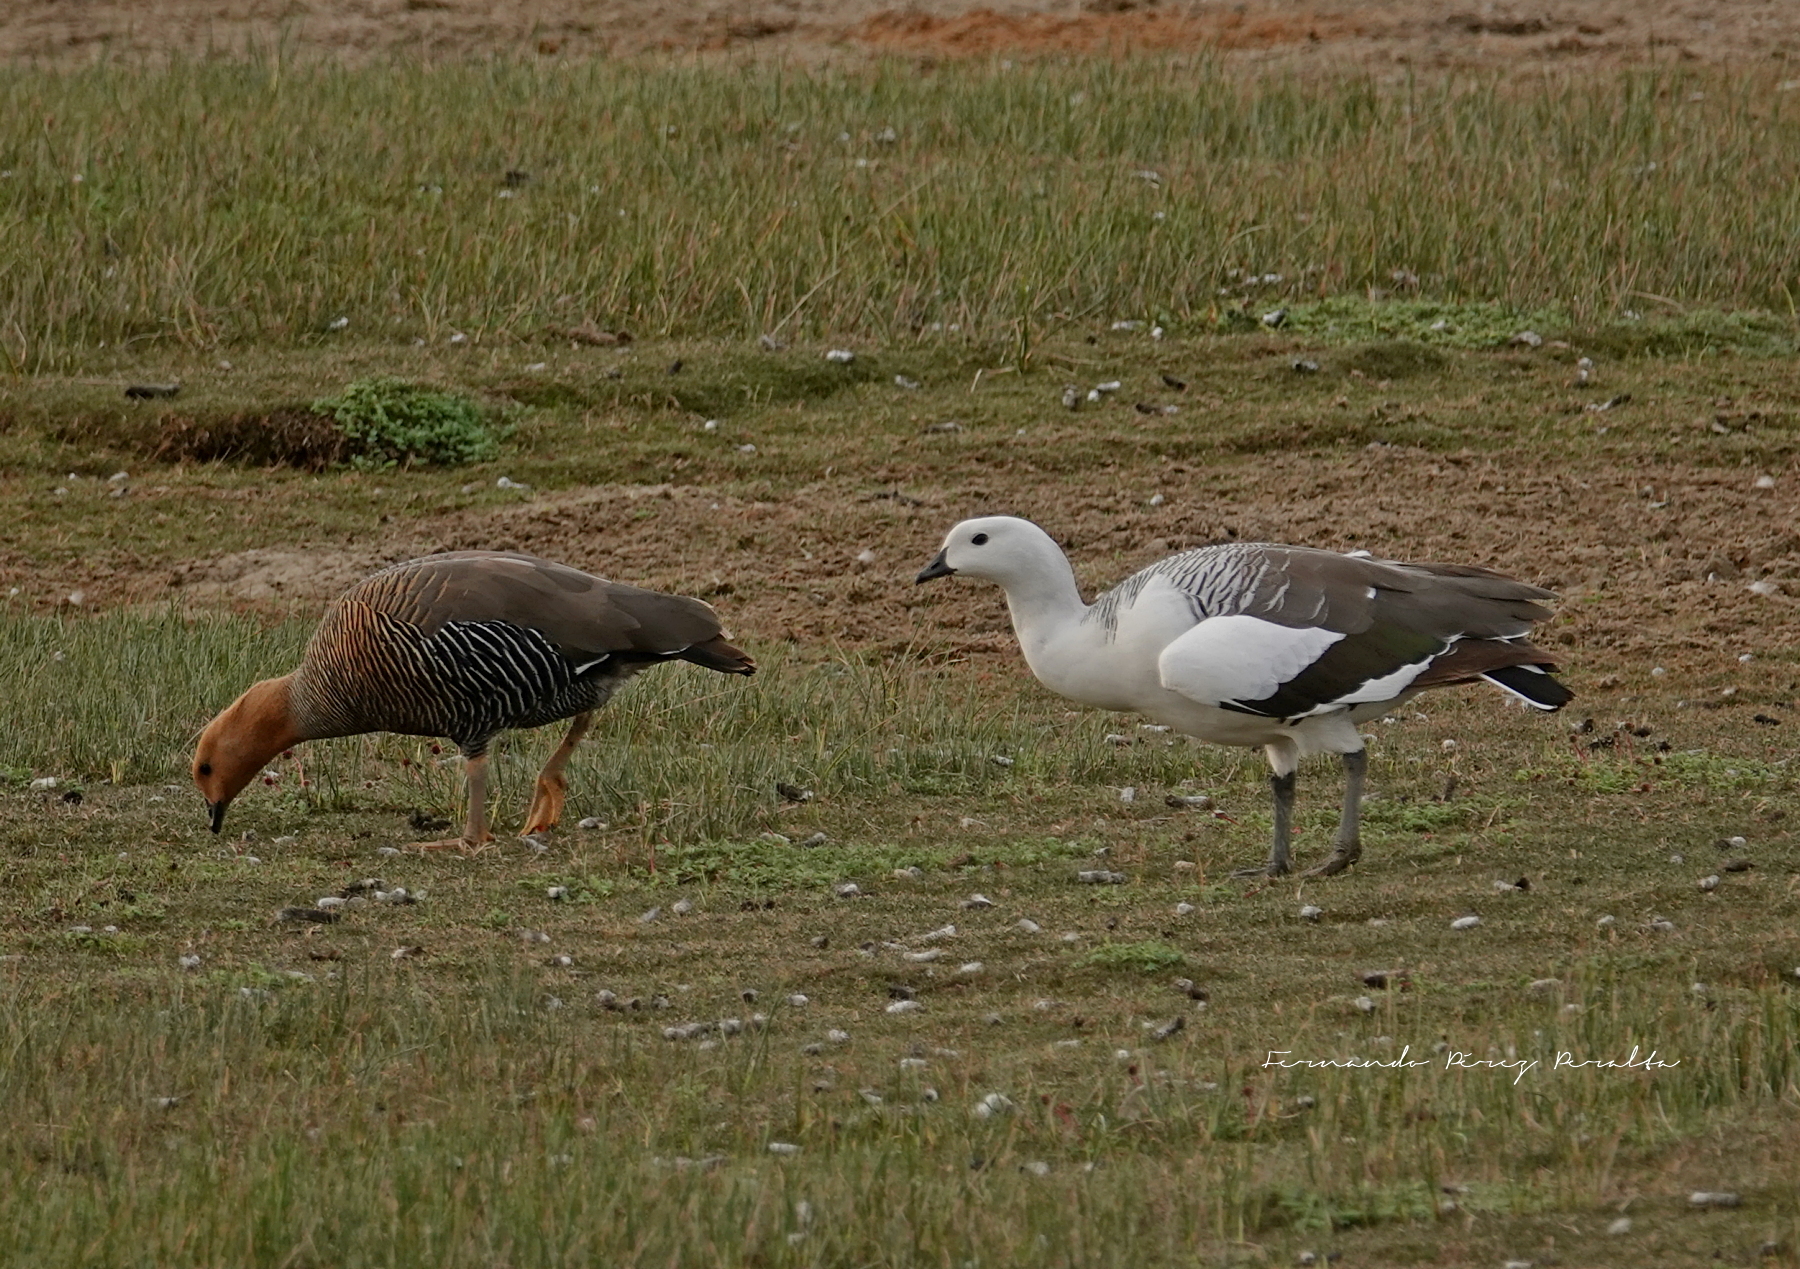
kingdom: Animalia
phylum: Chordata
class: Aves
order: Anseriformes
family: Anatidae
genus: Chloephaga
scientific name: Chloephaga picta
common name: Upland goose
